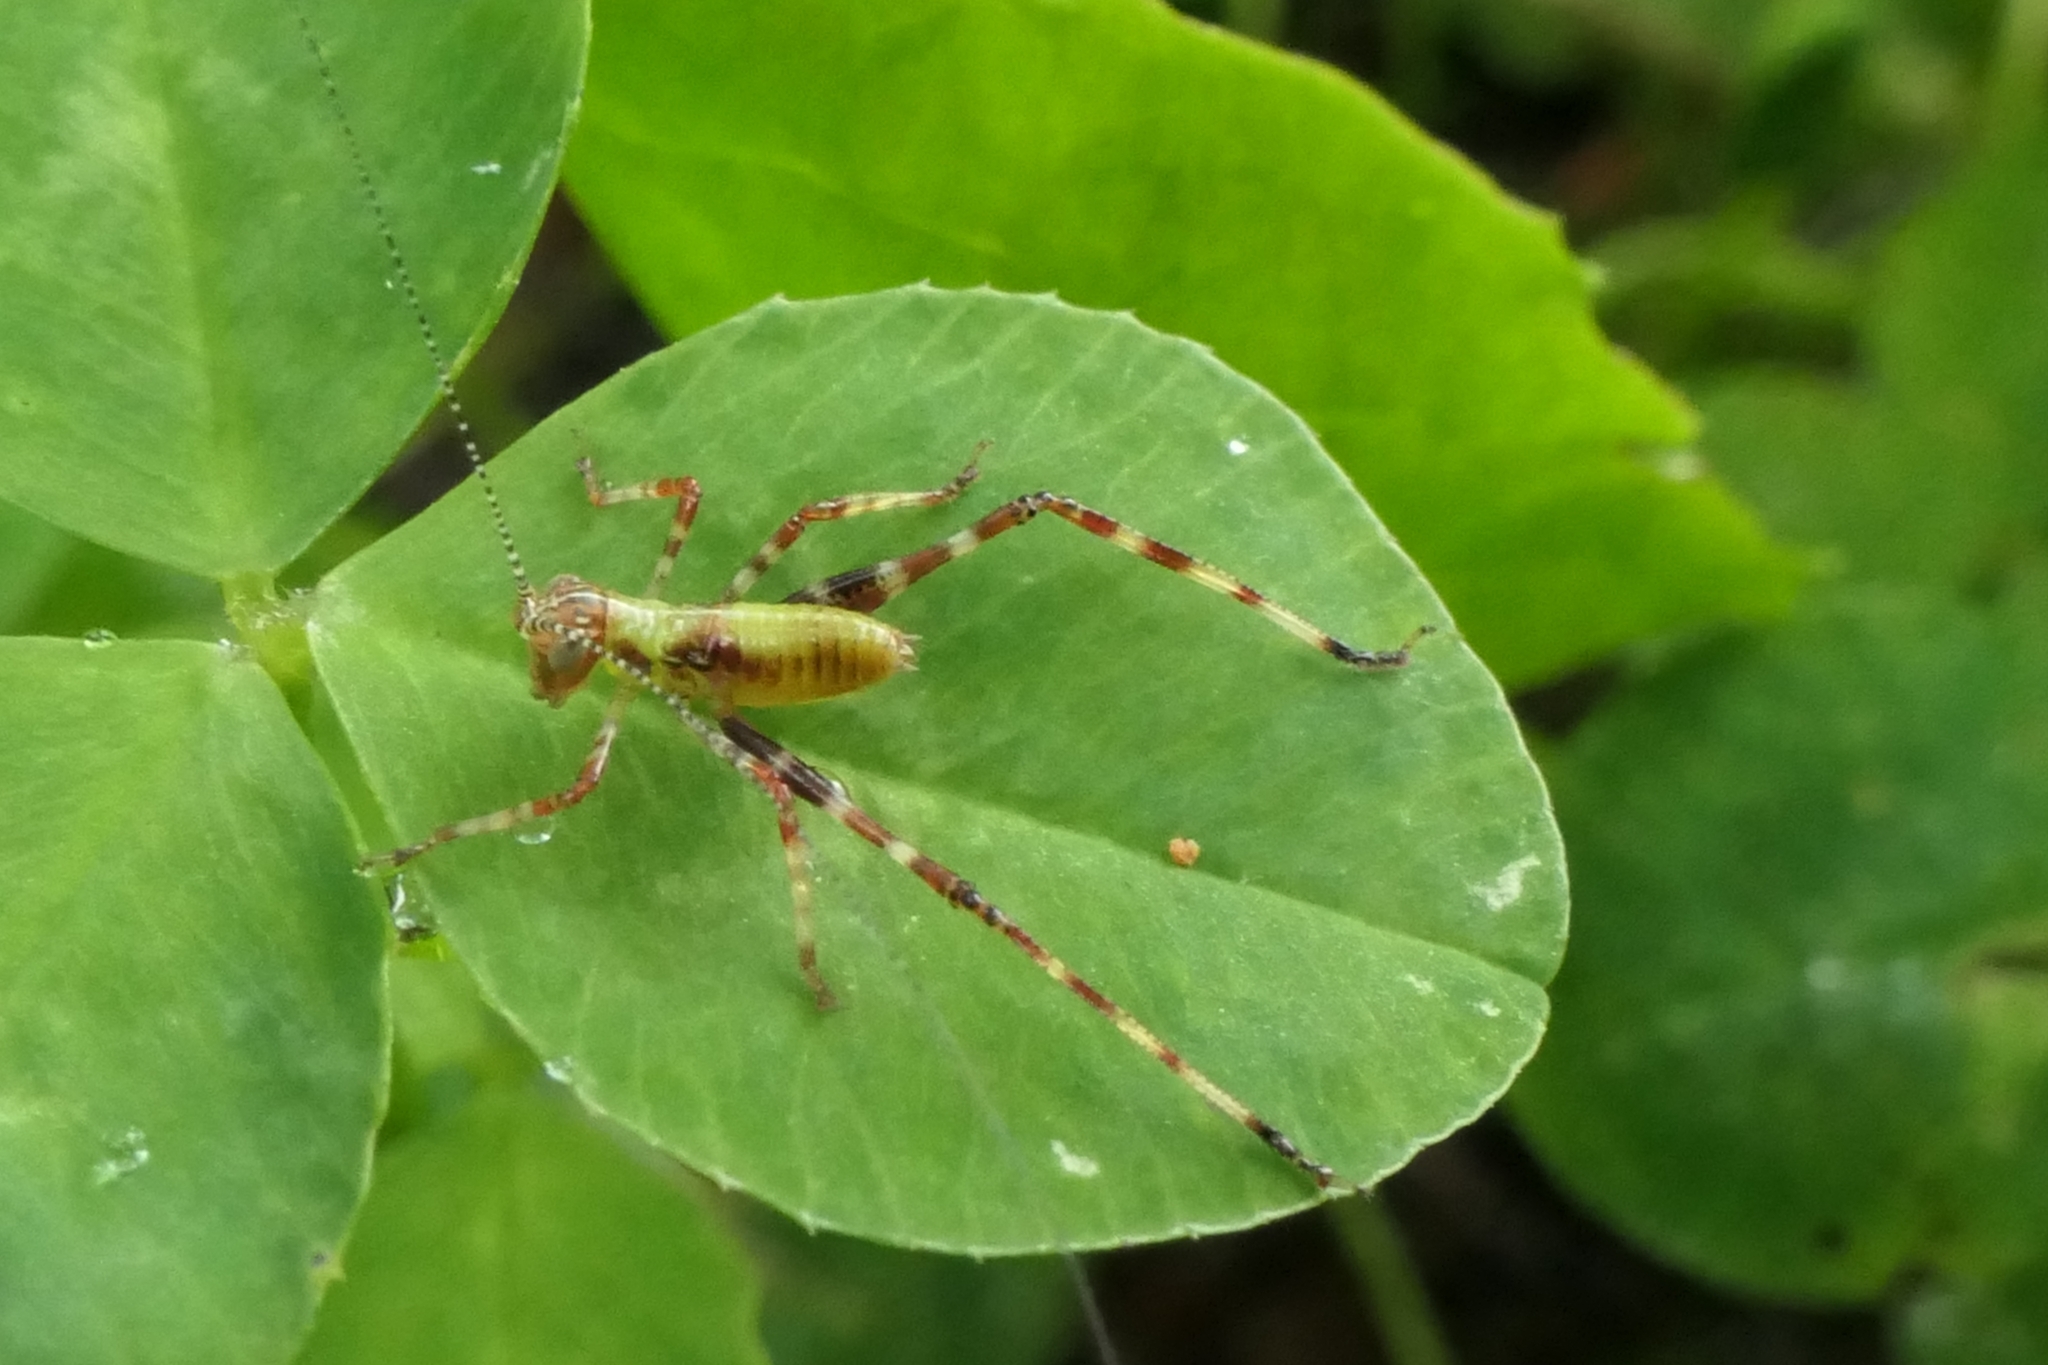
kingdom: Animalia
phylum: Arthropoda
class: Insecta
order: Orthoptera
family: Tettigoniidae
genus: Caedicia
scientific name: Caedicia simplex
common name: Common garden katydid
